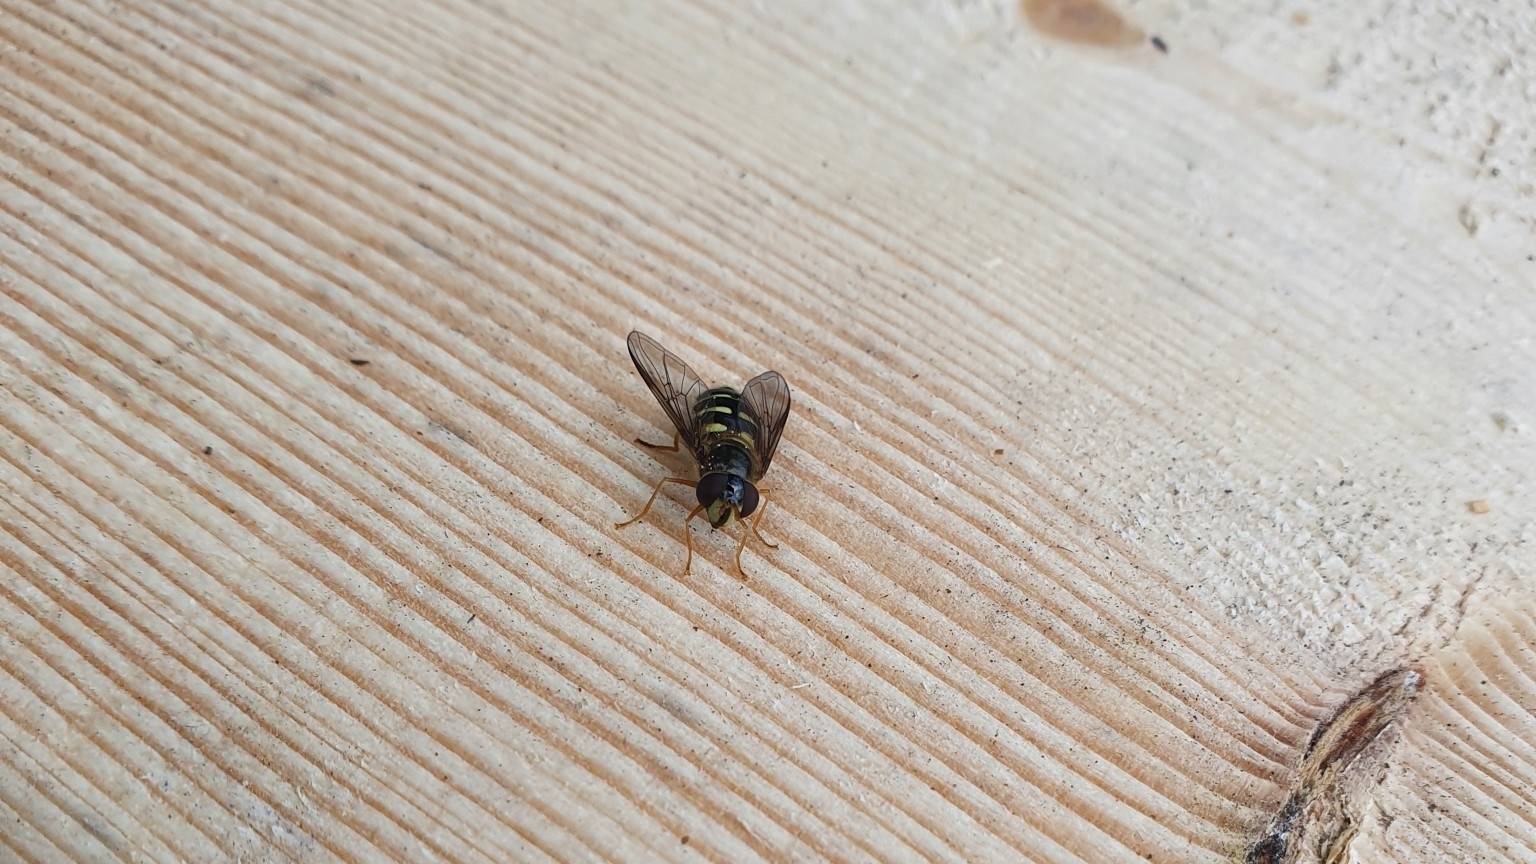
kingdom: Animalia
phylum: Arthropoda
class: Insecta
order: Diptera
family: Syrphidae
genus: Dasysyrphus
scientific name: Dasysyrphus
